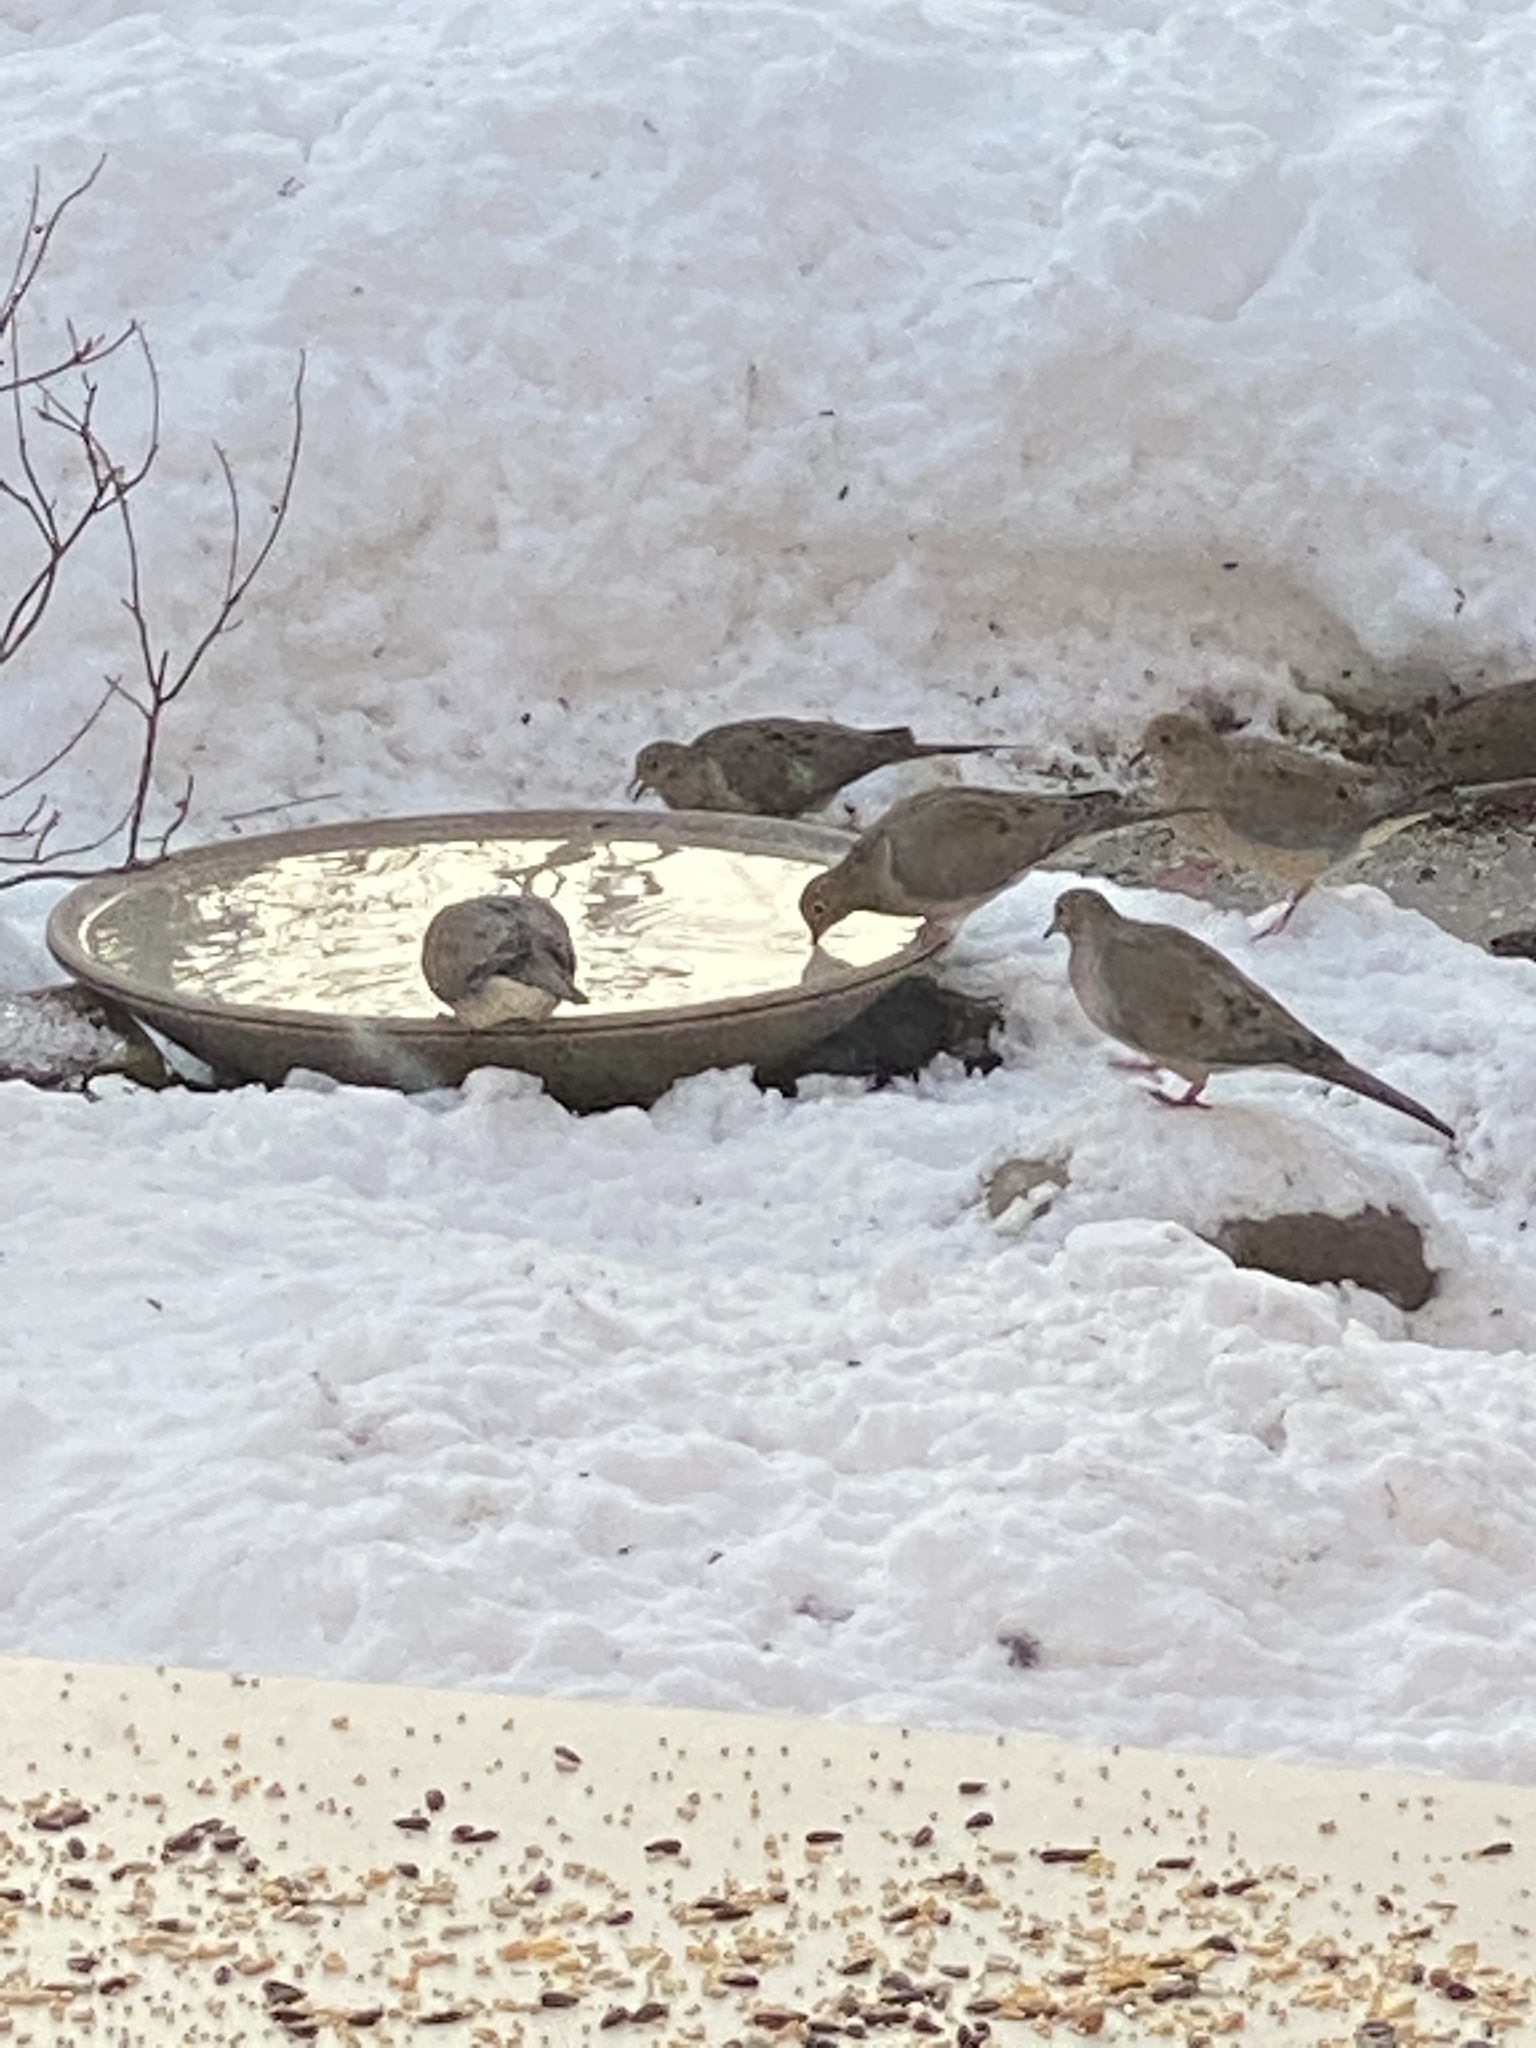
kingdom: Animalia
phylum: Chordata
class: Aves
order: Columbiformes
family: Columbidae
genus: Zenaida
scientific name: Zenaida macroura
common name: Mourning dove
